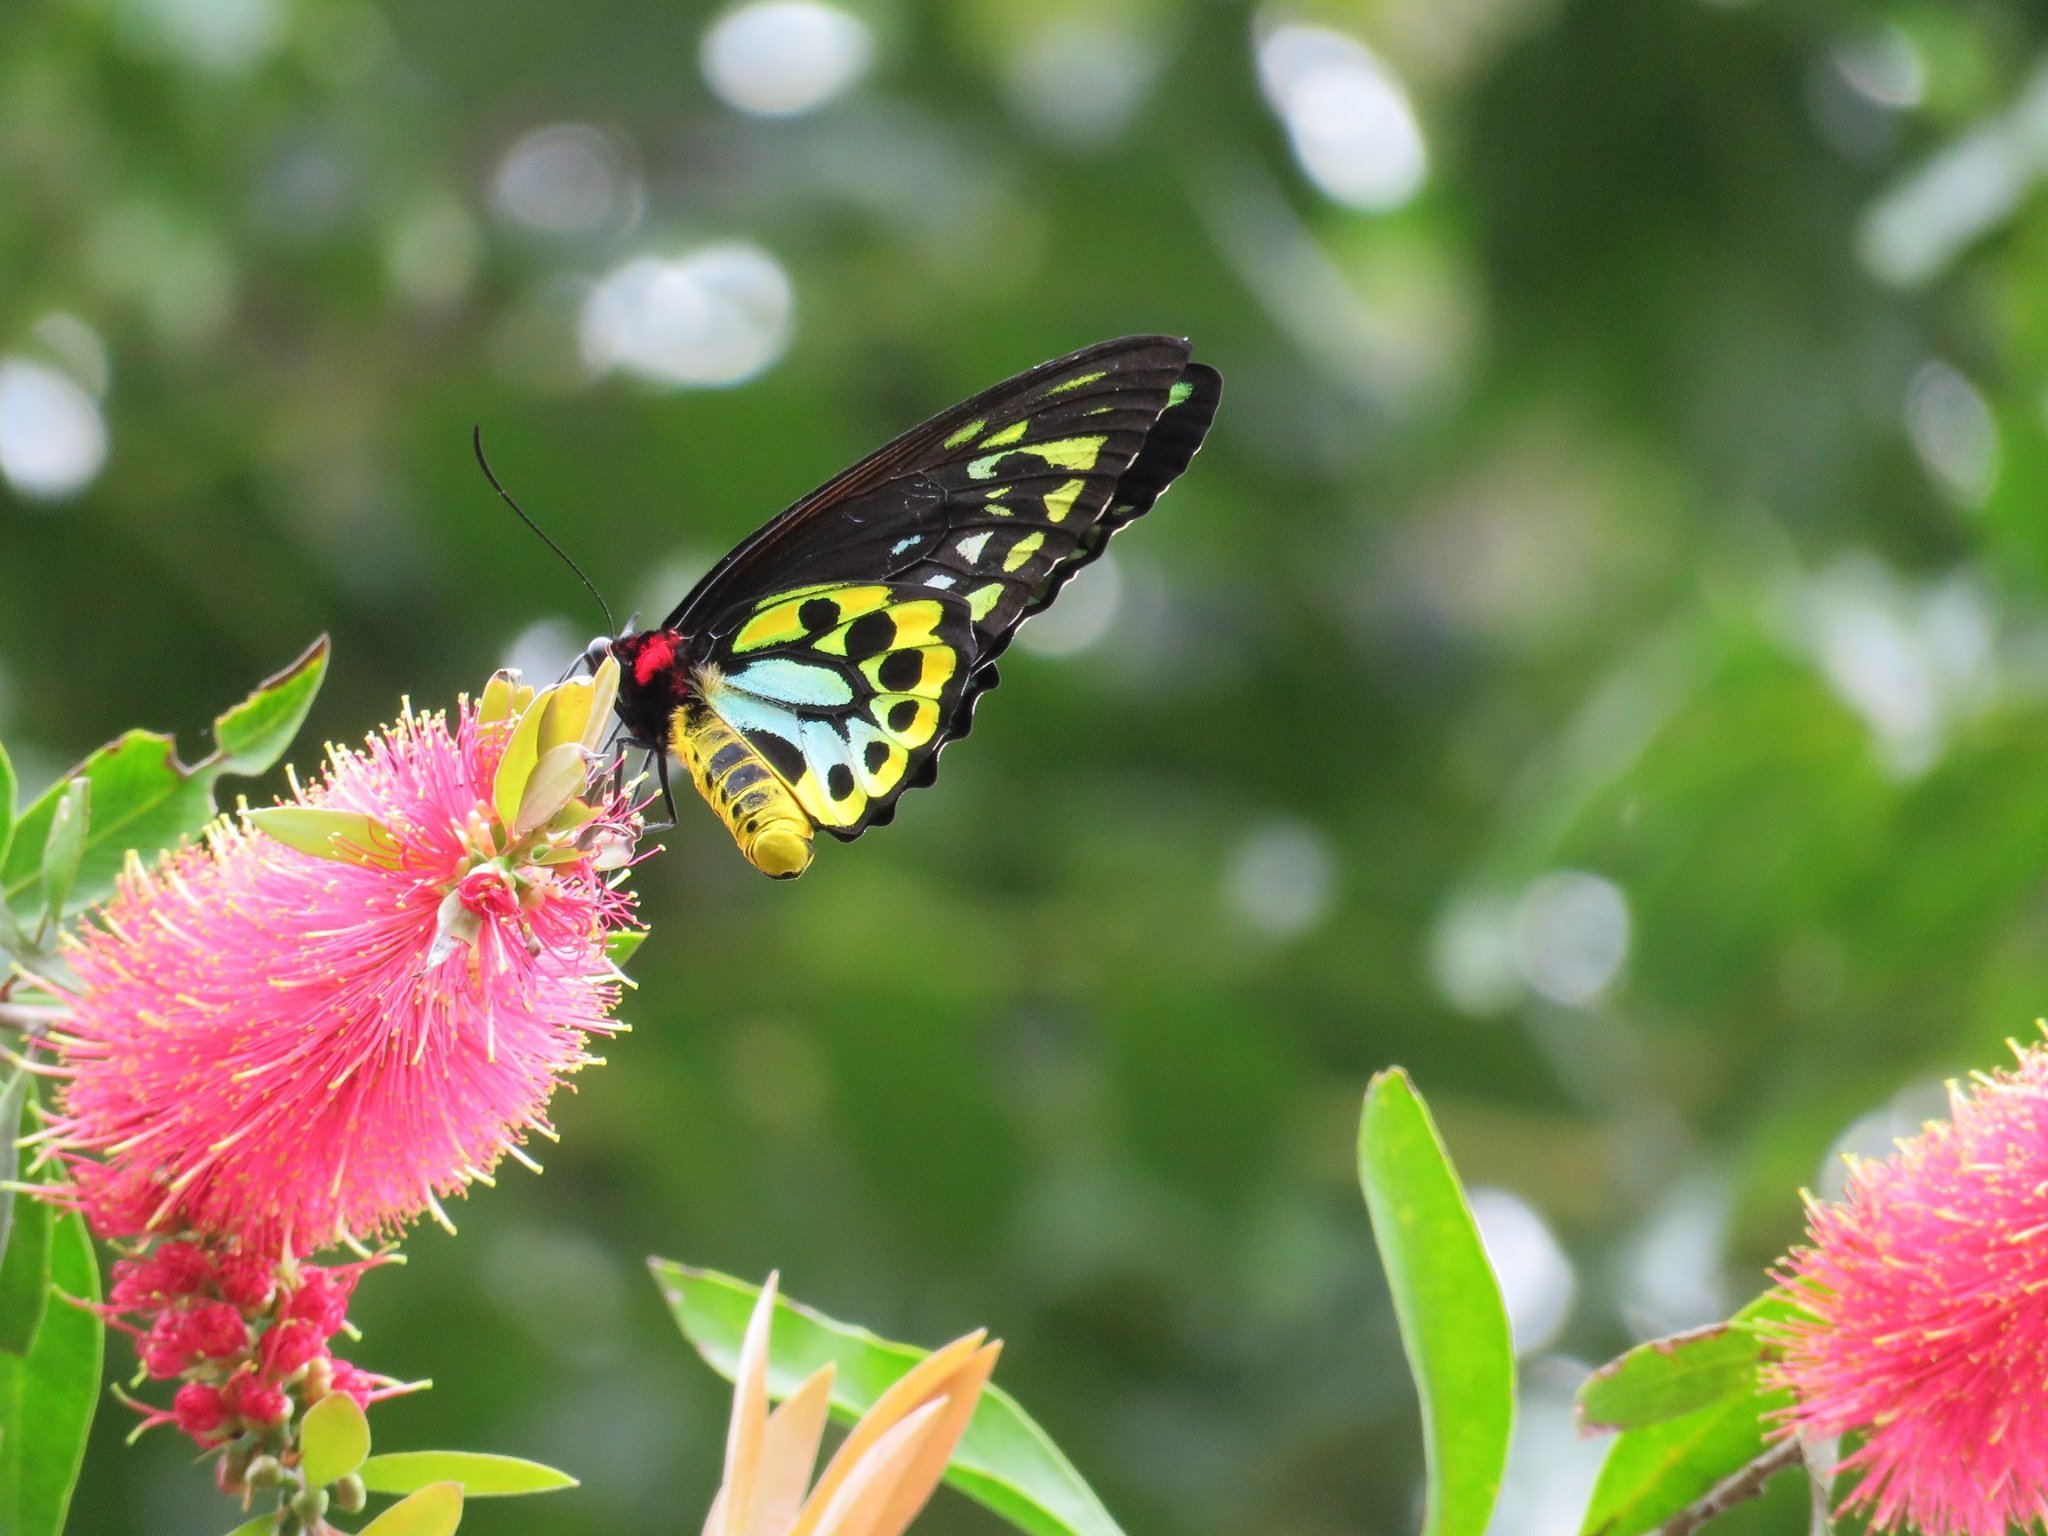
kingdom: Animalia
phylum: Arthropoda
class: Insecta
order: Lepidoptera
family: Papilionidae
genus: Ornithoptera
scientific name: Ornithoptera euphorion
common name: Cairns birdwing
